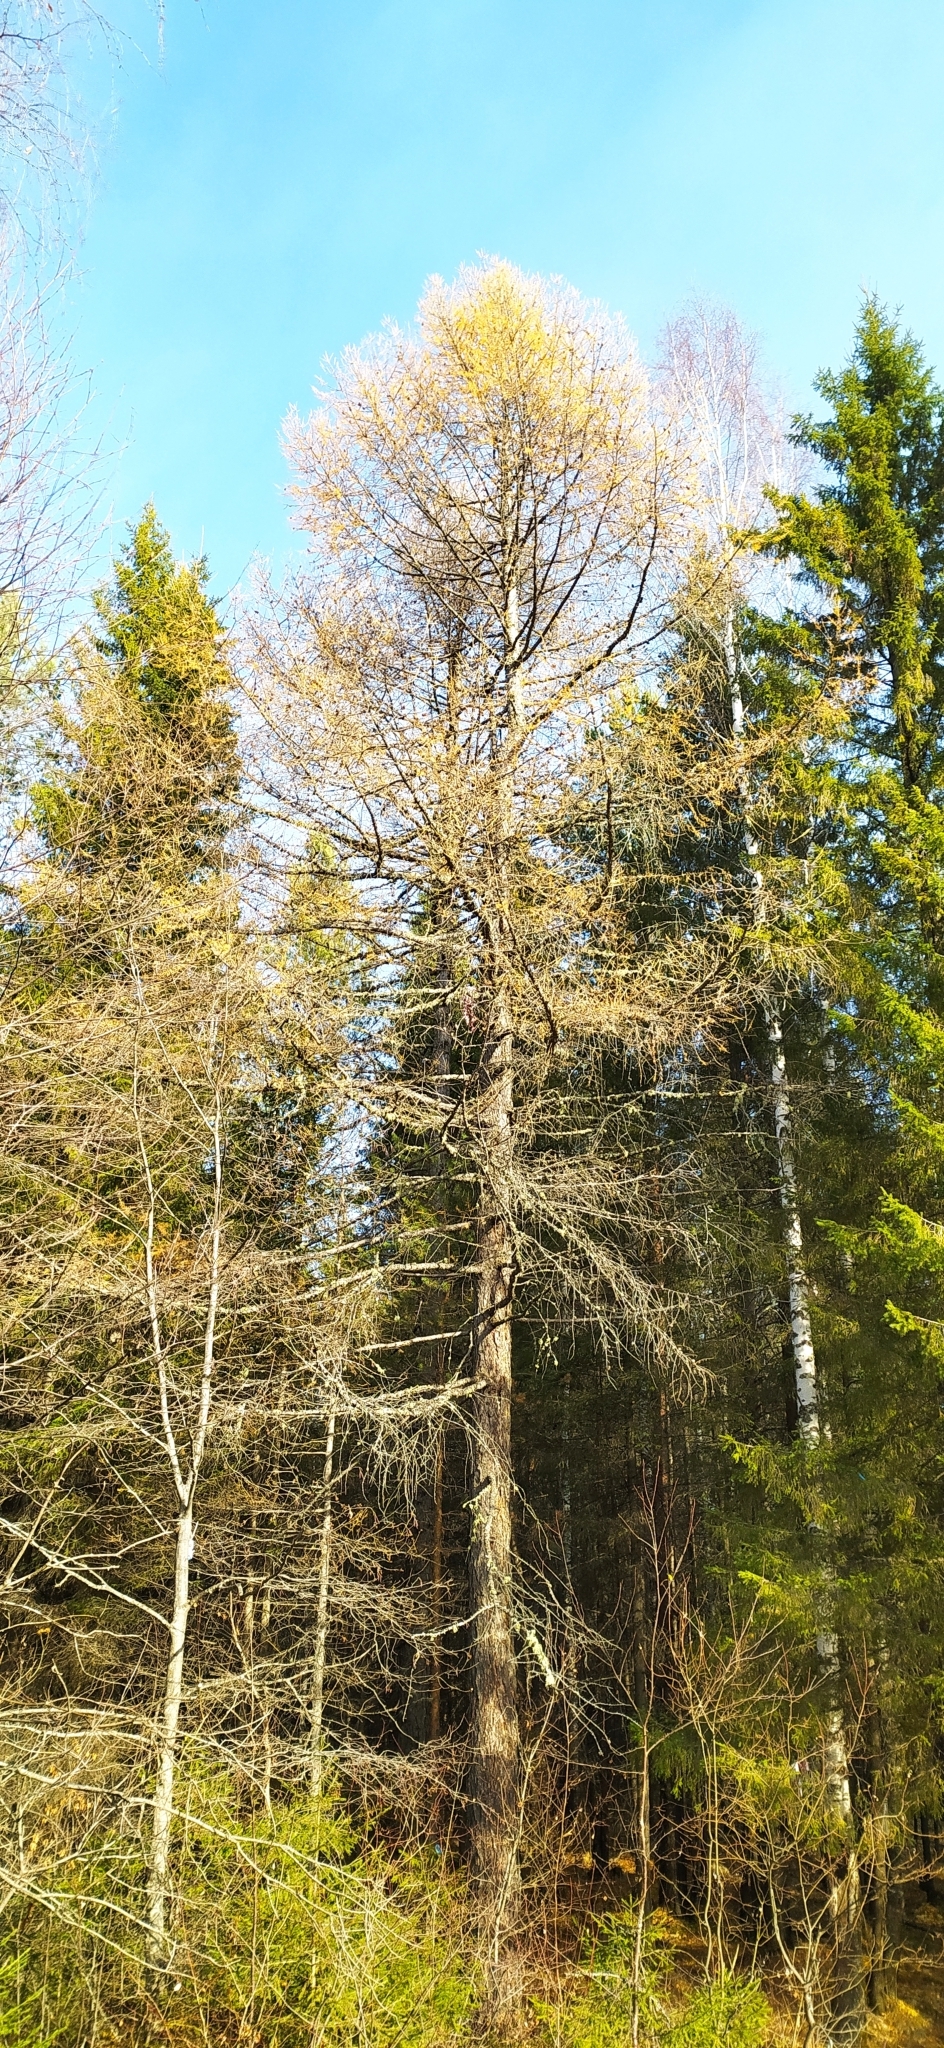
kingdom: Plantae
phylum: Tracheophyta
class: Pinopsida
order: Pinales
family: Pinaceae
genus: Larix
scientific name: Larix sibirica
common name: Siberian larch
